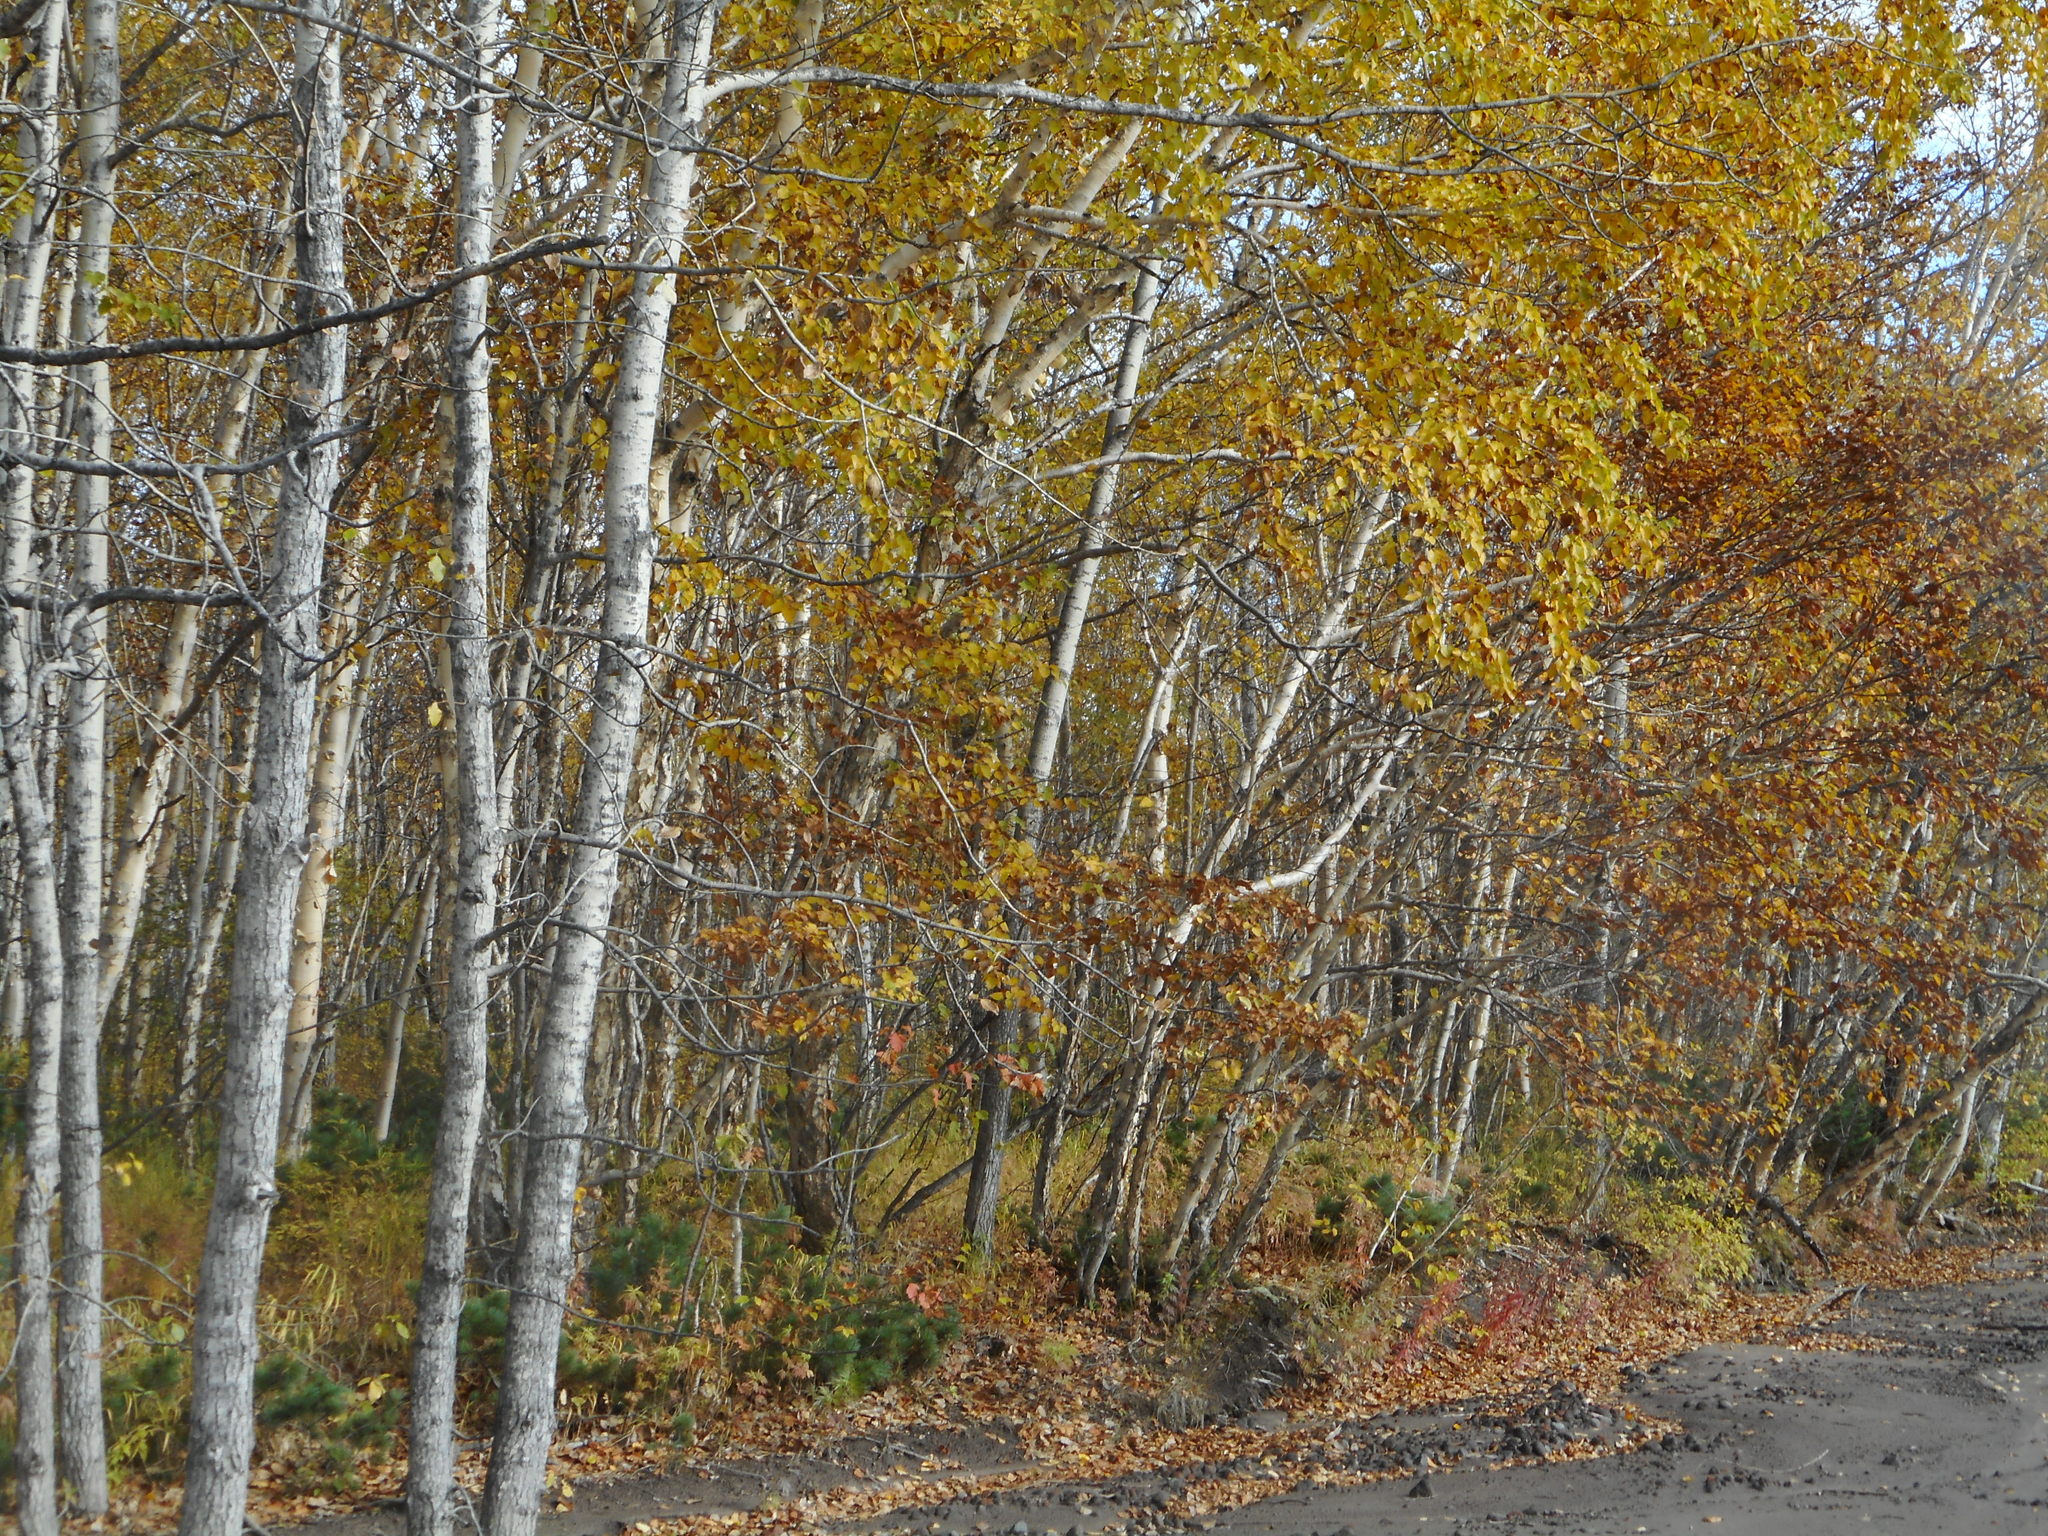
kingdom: Plantae
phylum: Tracheophyta
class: Magnoliopsida
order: Fagales
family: Betulaceae
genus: Betula
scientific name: Betula ermanii
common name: Erman's birch
